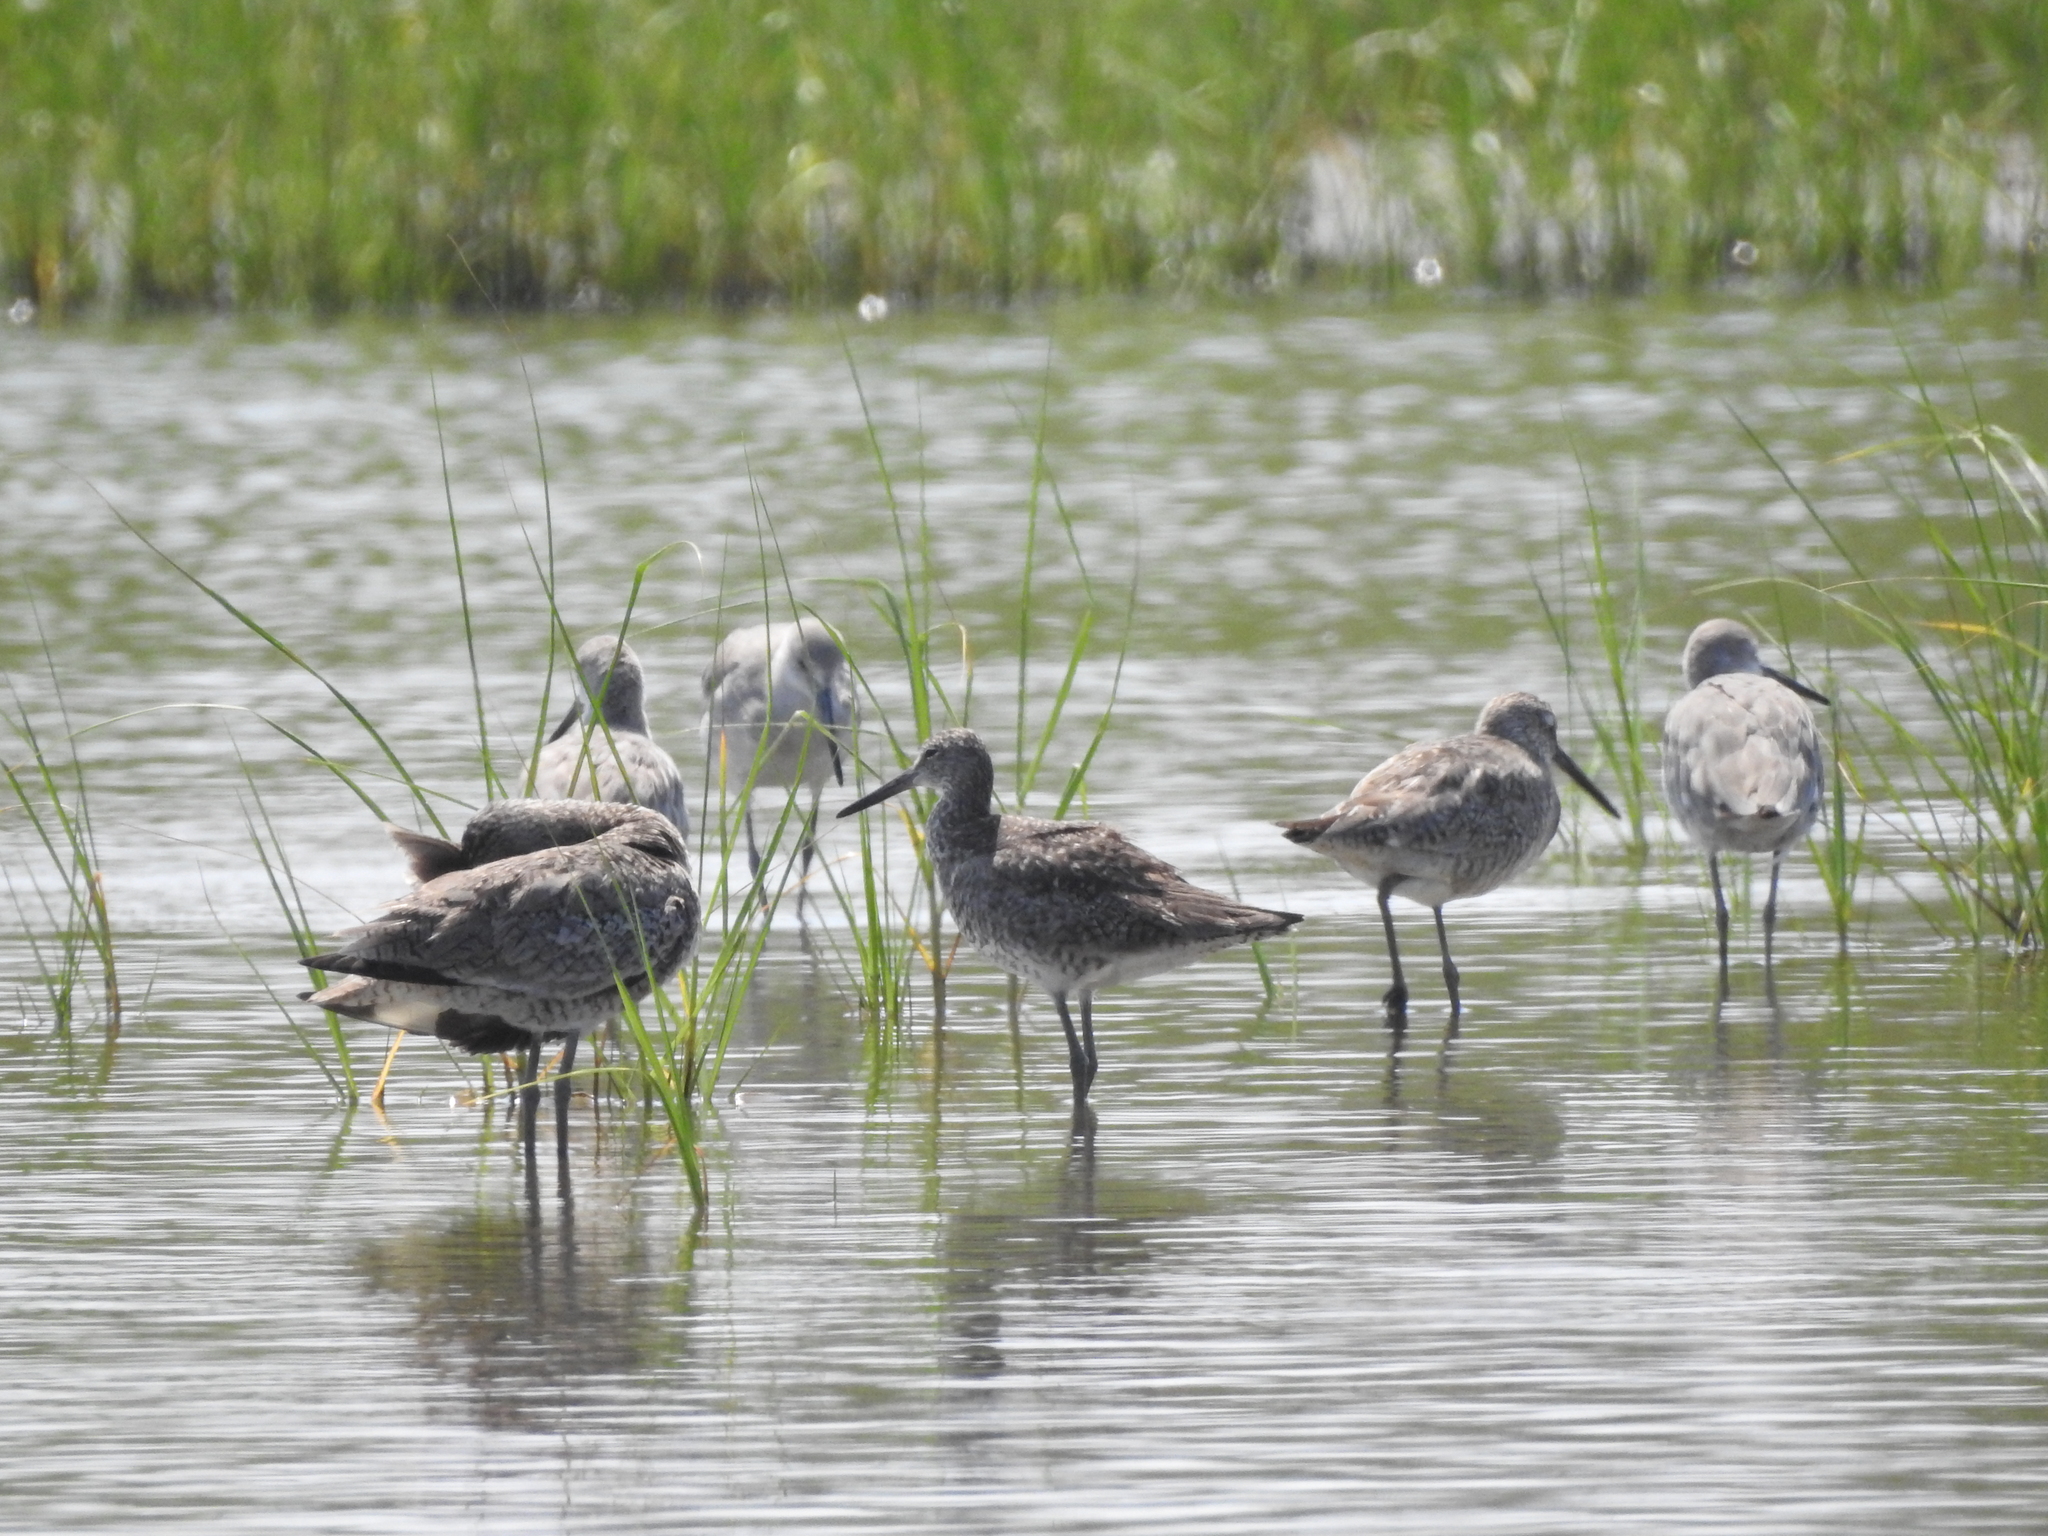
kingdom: Animalia
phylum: Chordata
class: Aves
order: Charadriiformes
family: Scolopacidae
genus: Tringa
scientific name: Tringa semipalmata
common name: Willet
